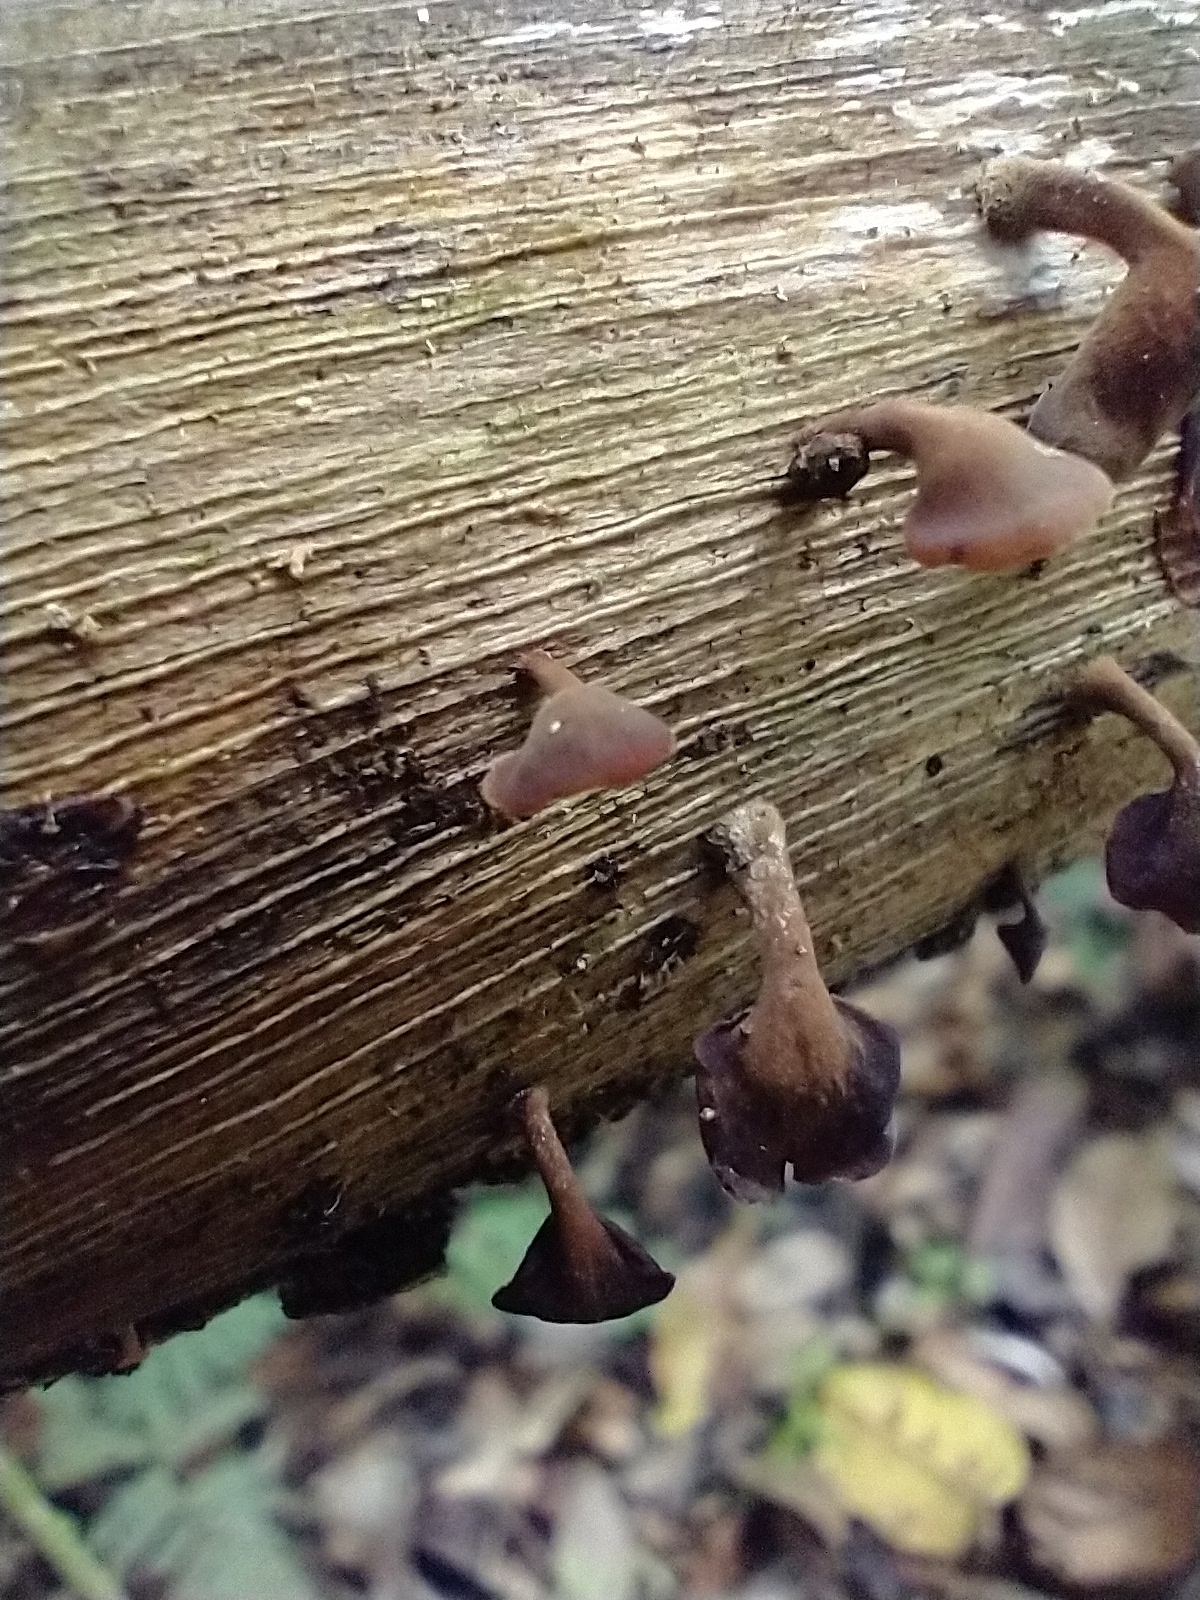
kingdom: Fungi
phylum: Basidiomycota
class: Dacrymycetes
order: Dacrymycetales
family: Dacrymycetaceae
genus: Dacryopinax
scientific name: Dacryopinax elegans
